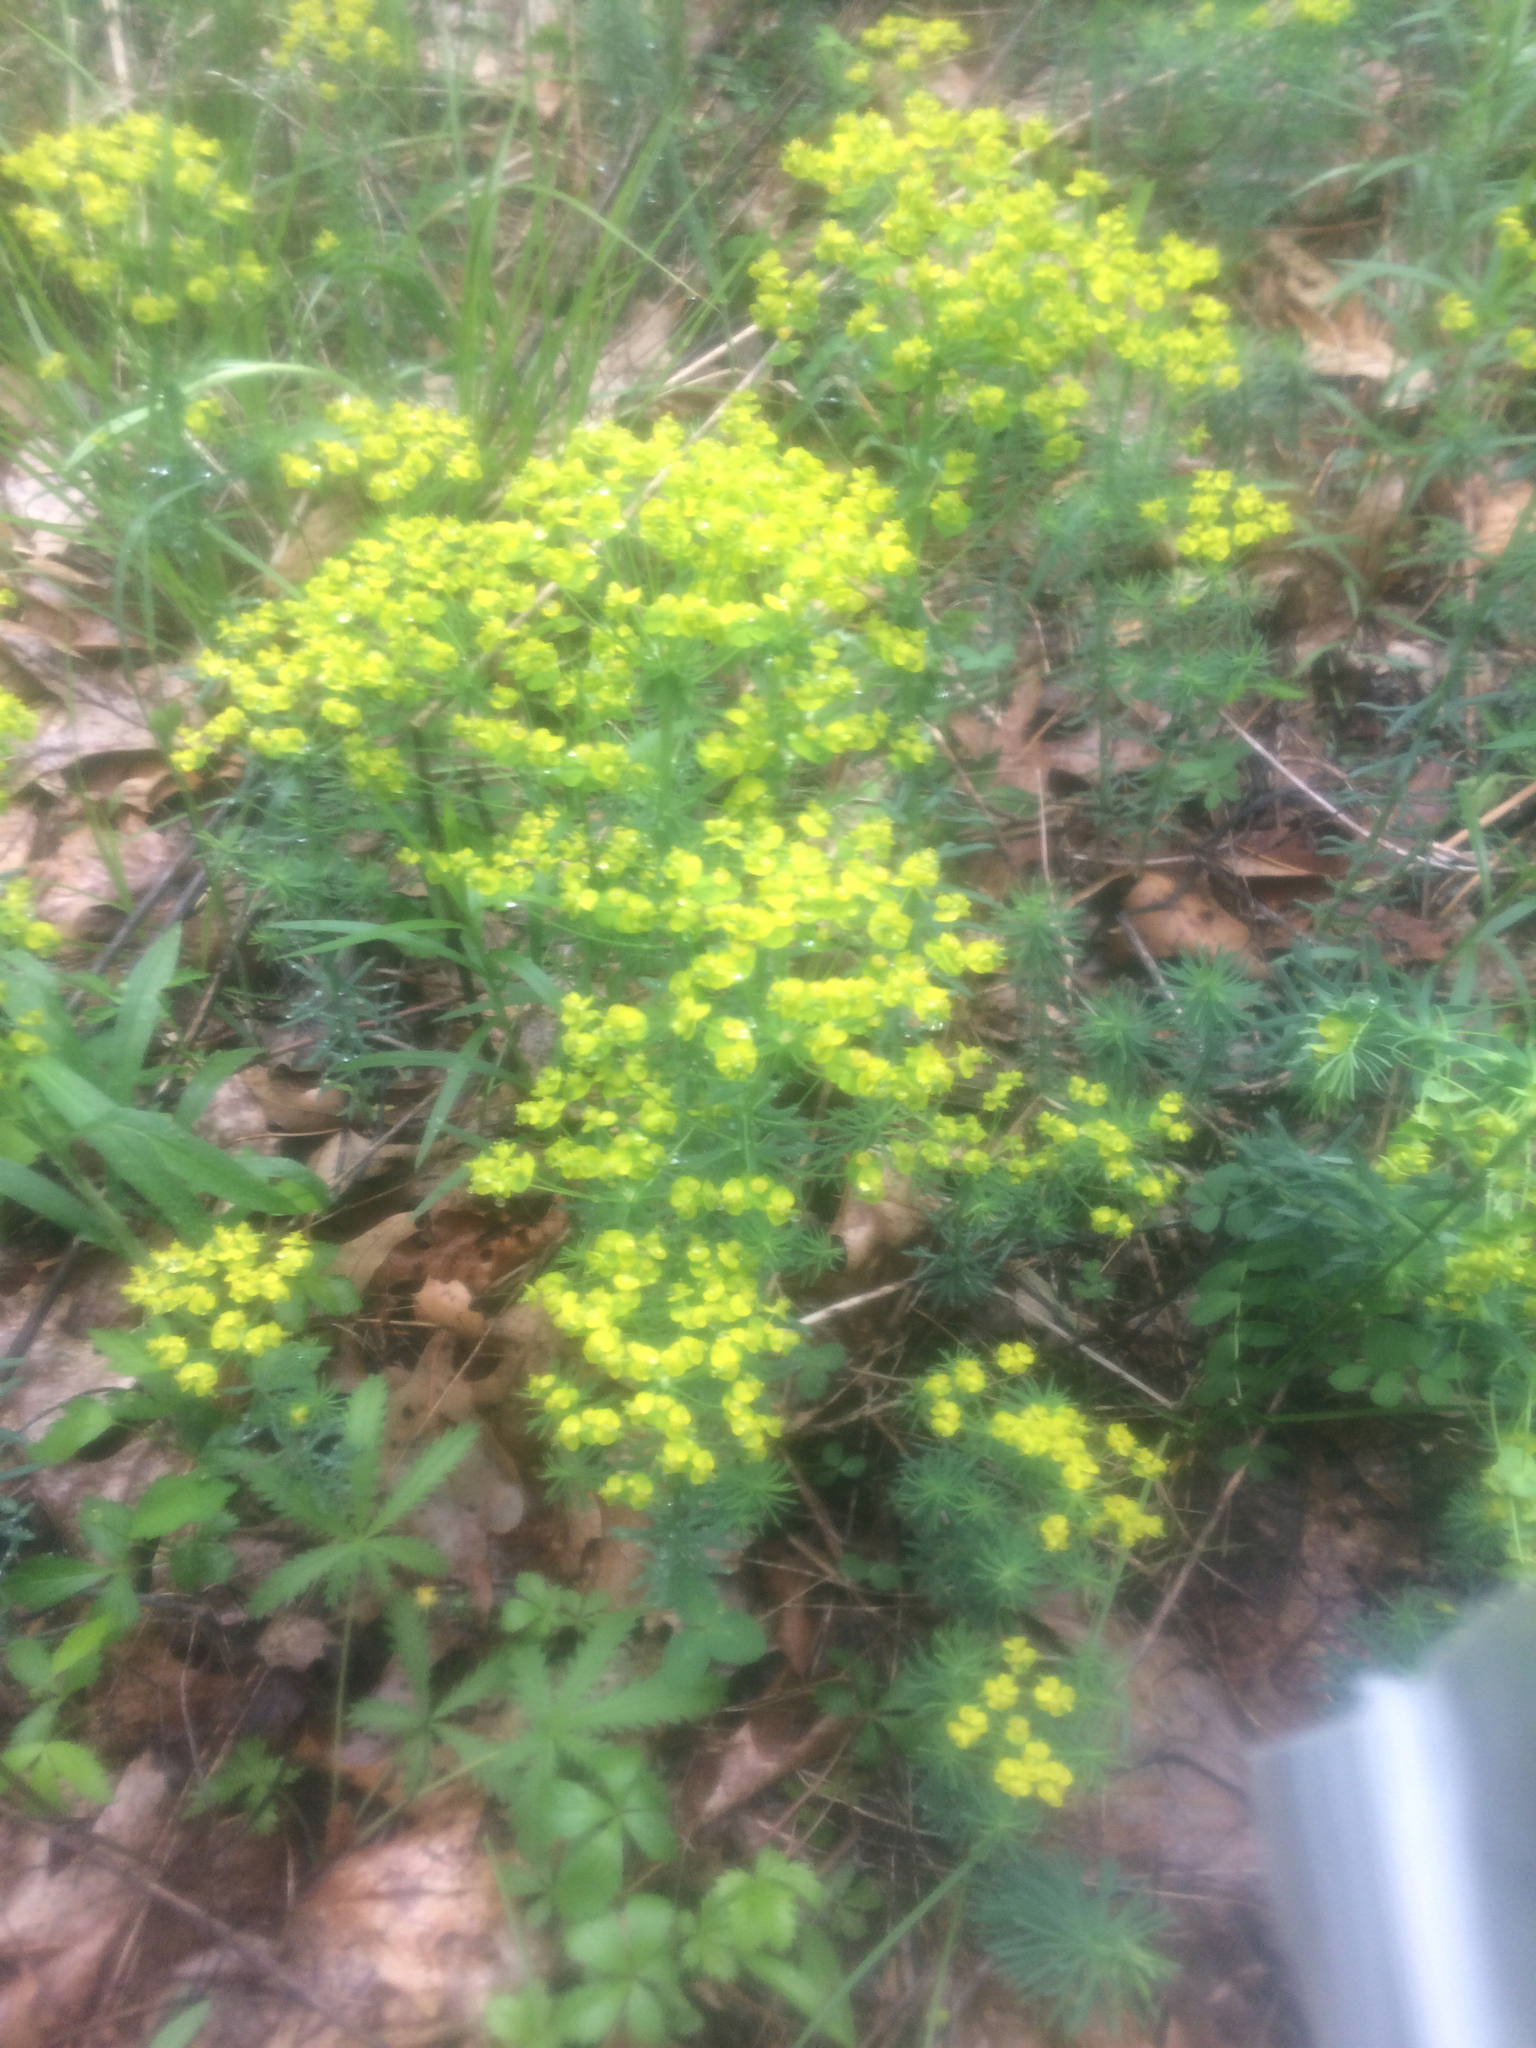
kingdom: Plantae
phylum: Tracheophyta
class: Magnoliopsida
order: Malpighiales
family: Euphorbiaceae
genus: Euphorbia
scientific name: Euphorbia cyparissias
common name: Cypress spurge
